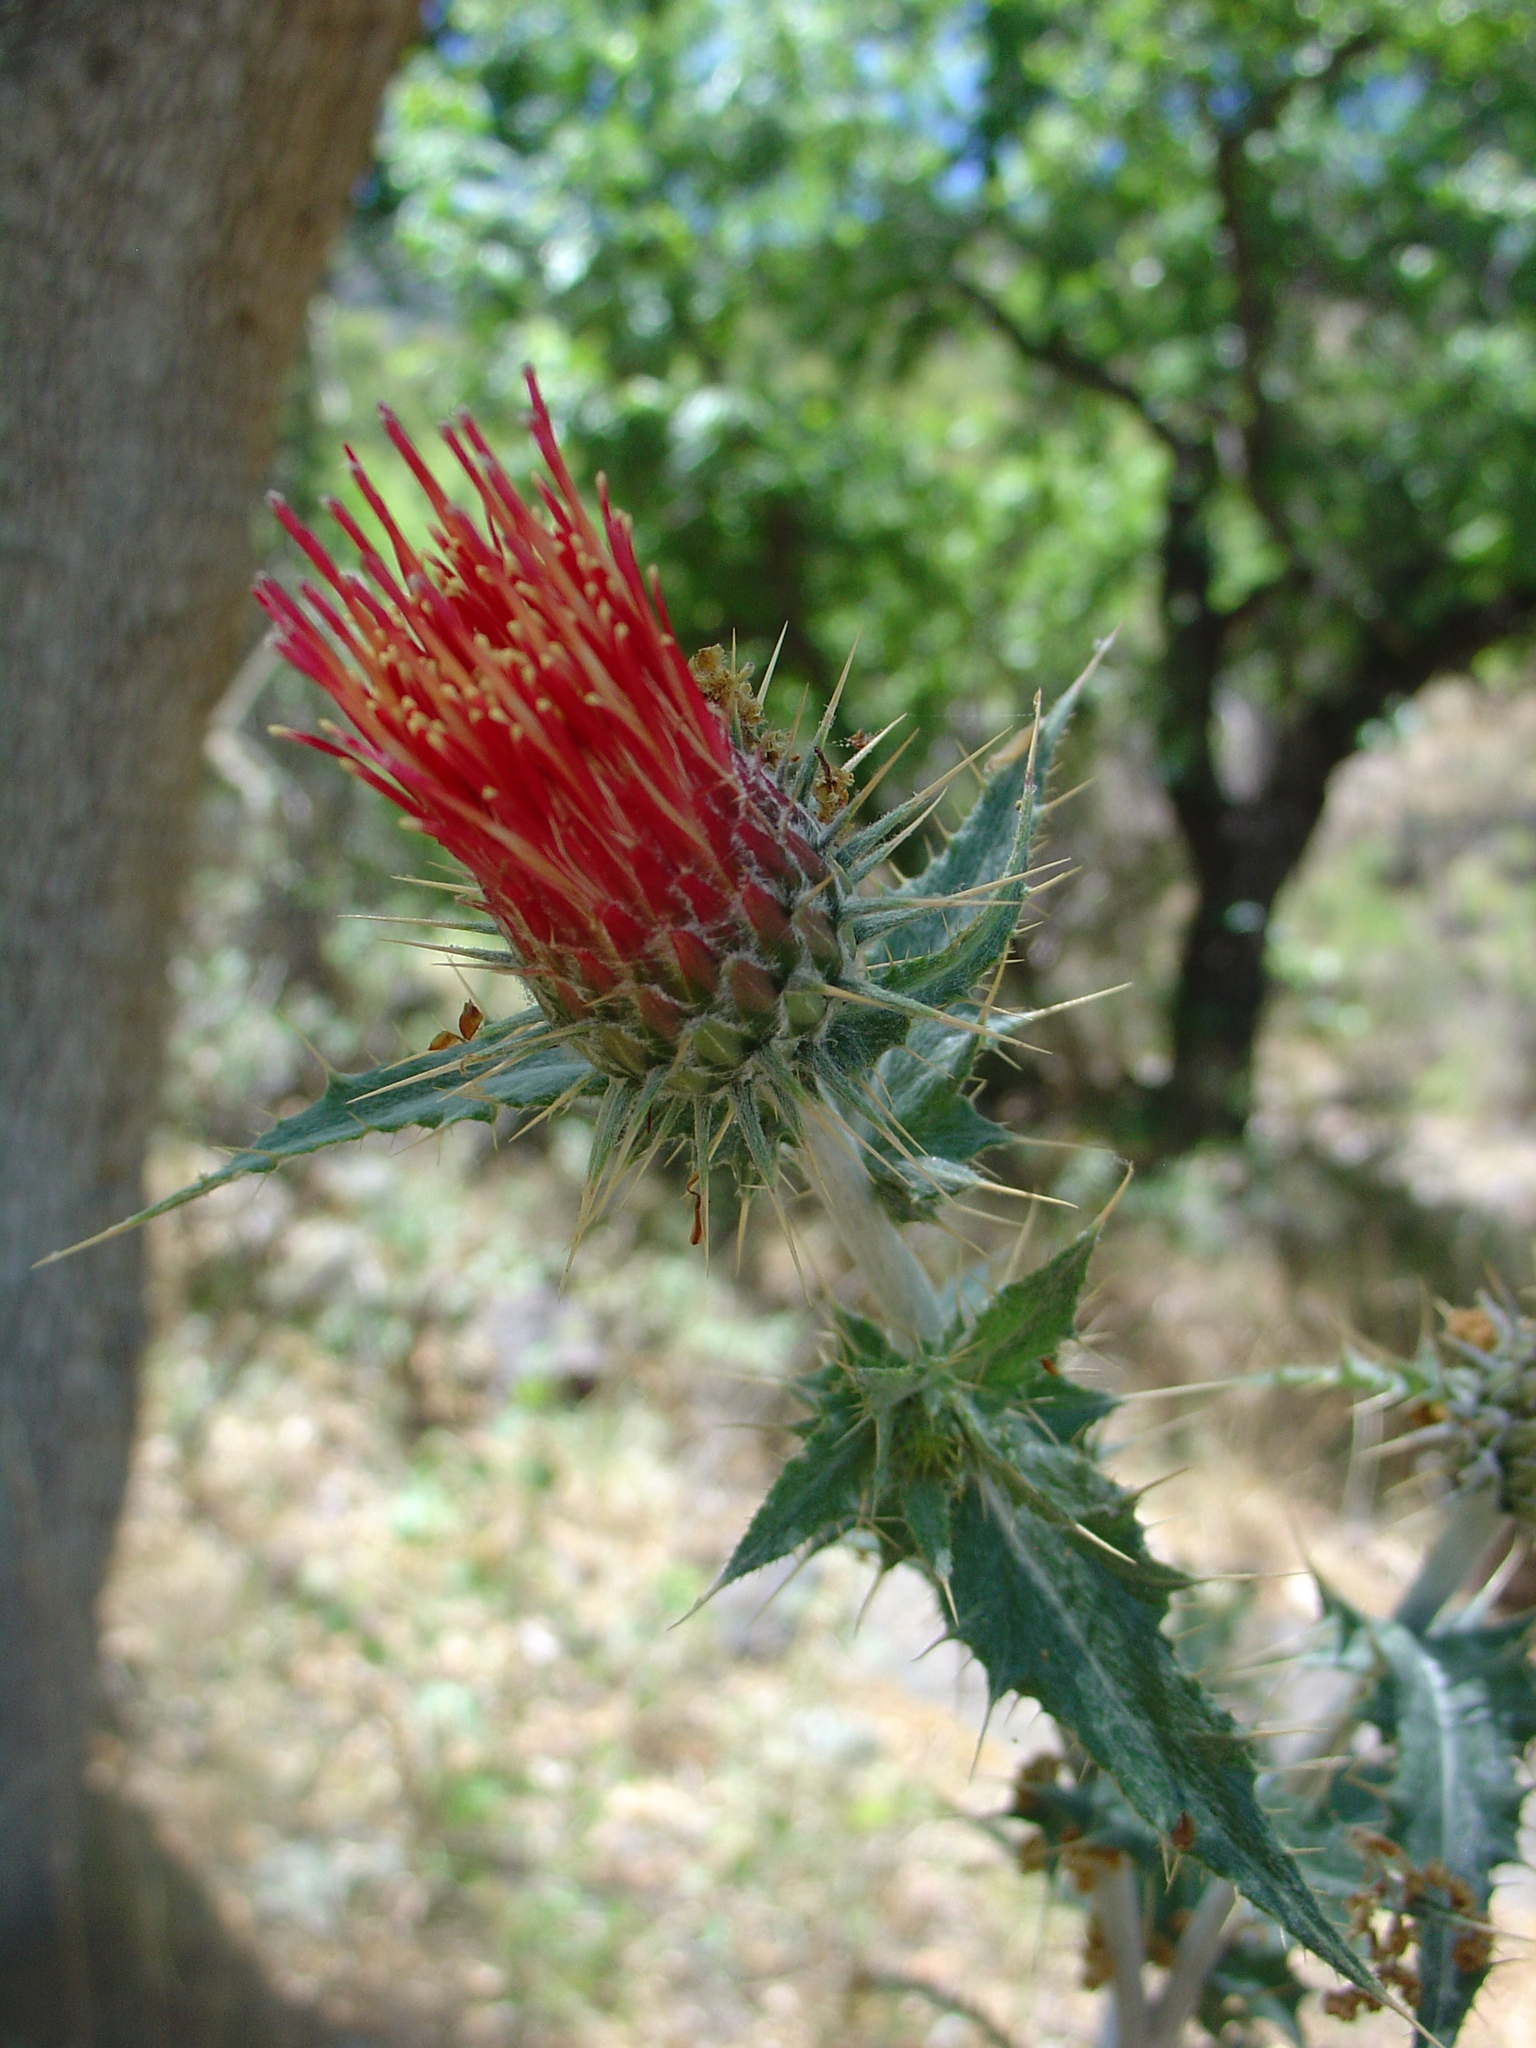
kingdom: Plantae
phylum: Tracheophyta
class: Magnoliopsida
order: Asterales
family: Asteraceae
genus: Cirsium
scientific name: Cirsium arizonicum
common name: Arizona thistle
